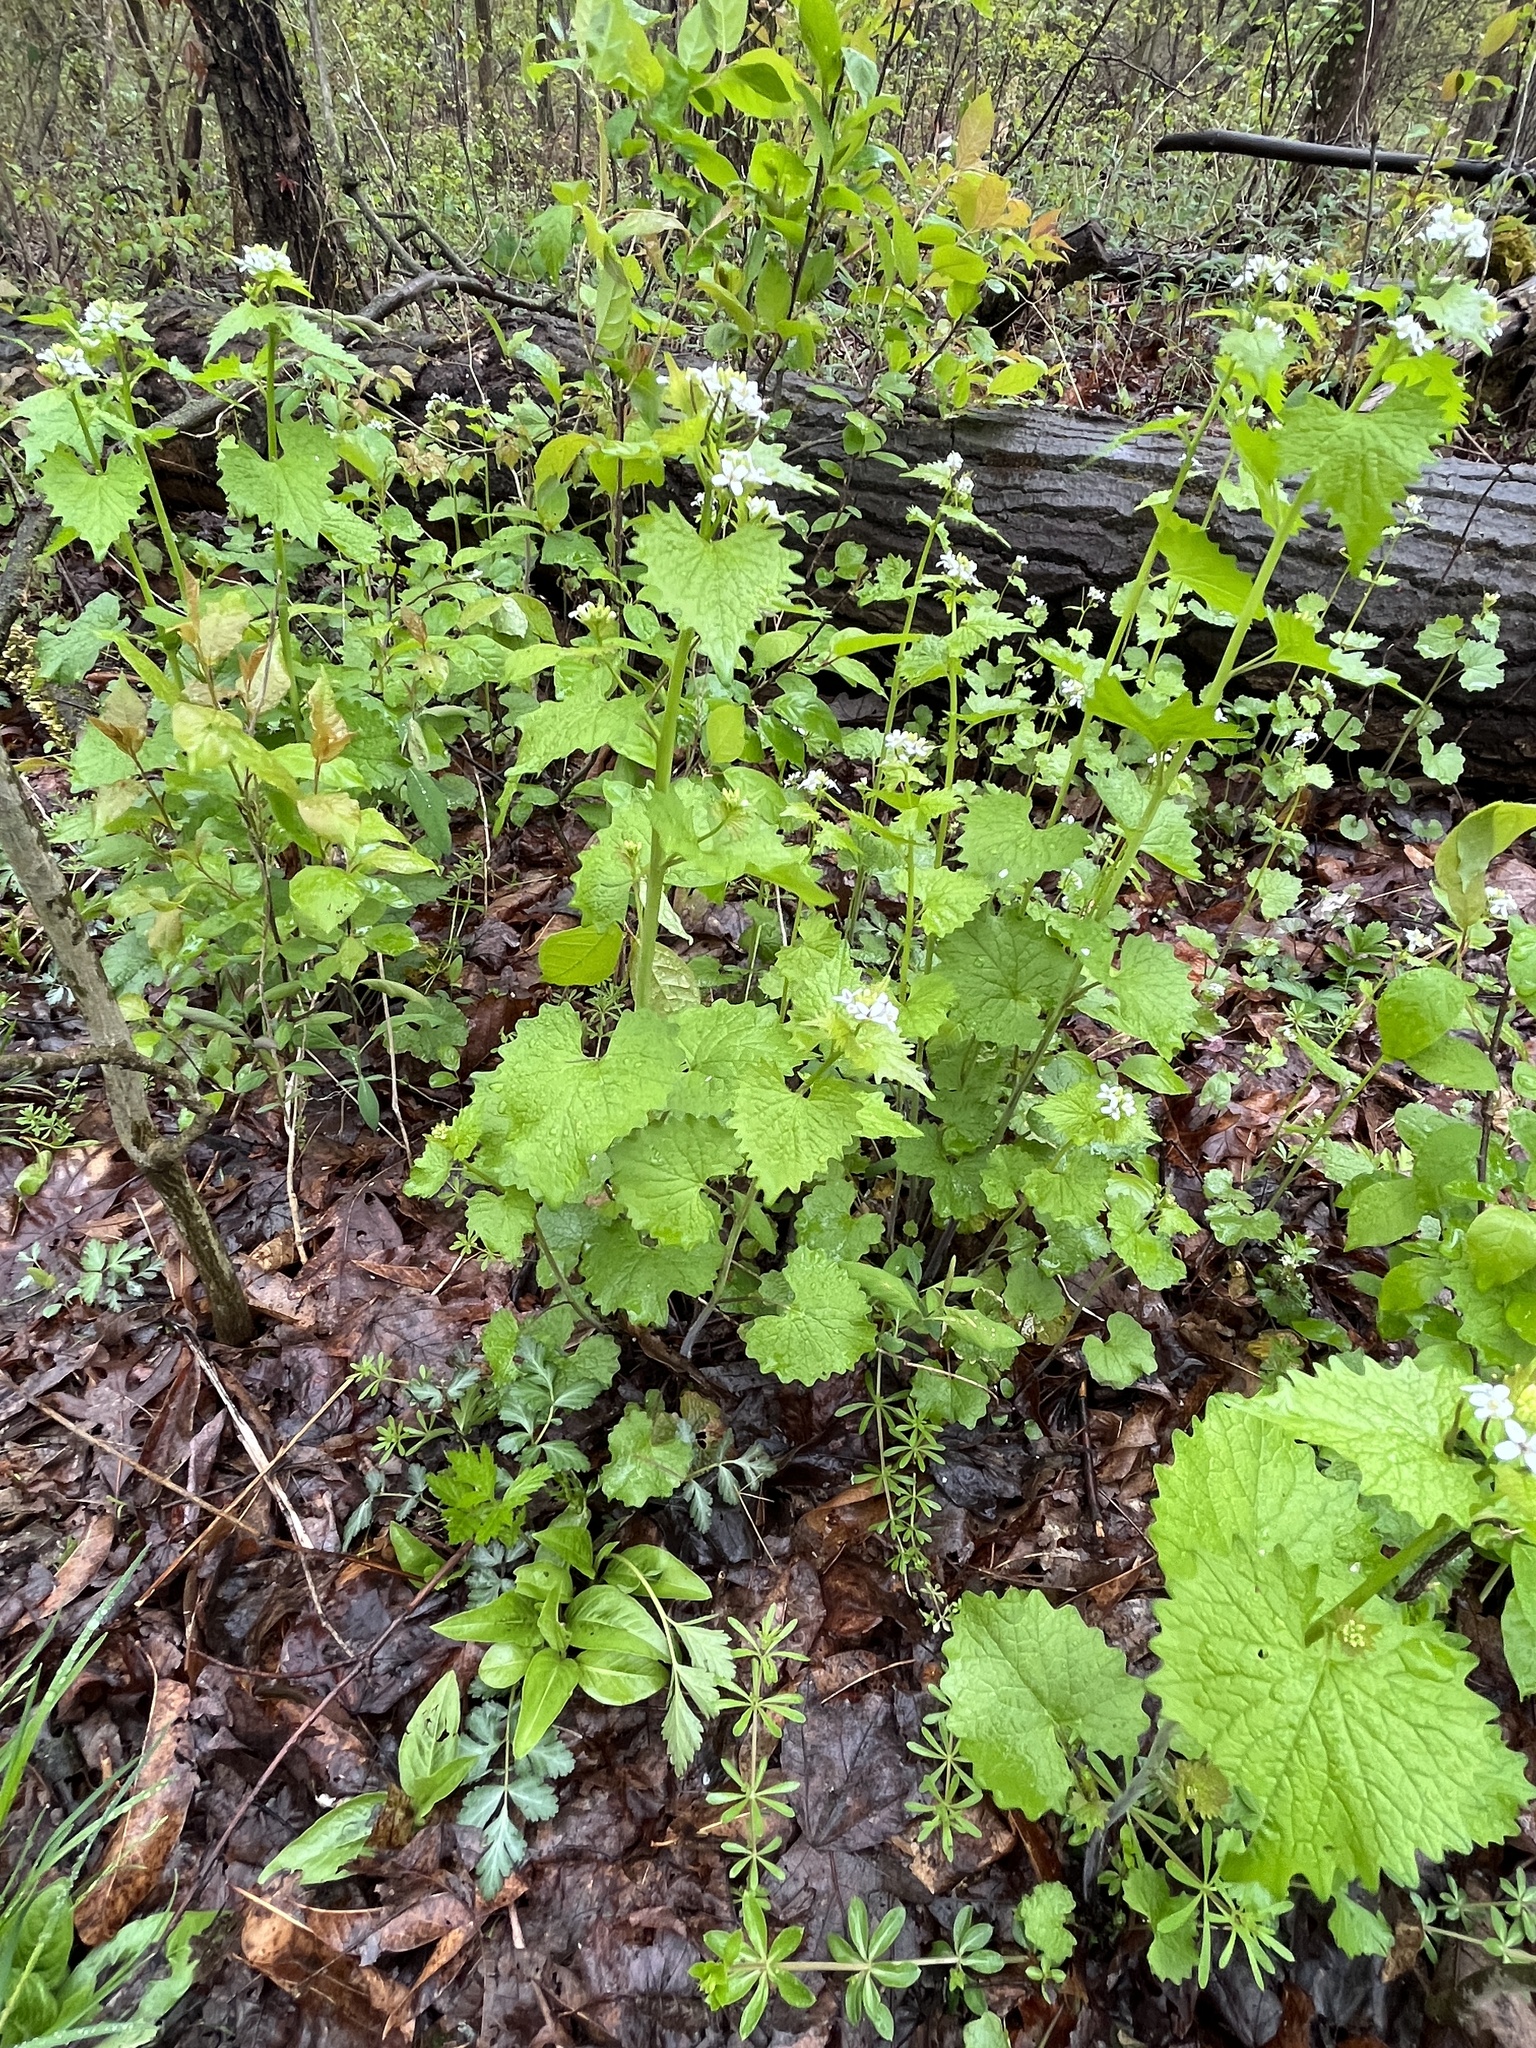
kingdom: Plantae
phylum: Tracheophyta
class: Magnoliopsida
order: Brassicales
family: Brassicaceae
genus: Alliaria
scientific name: Alliaria petiolata
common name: Garlic mustard
